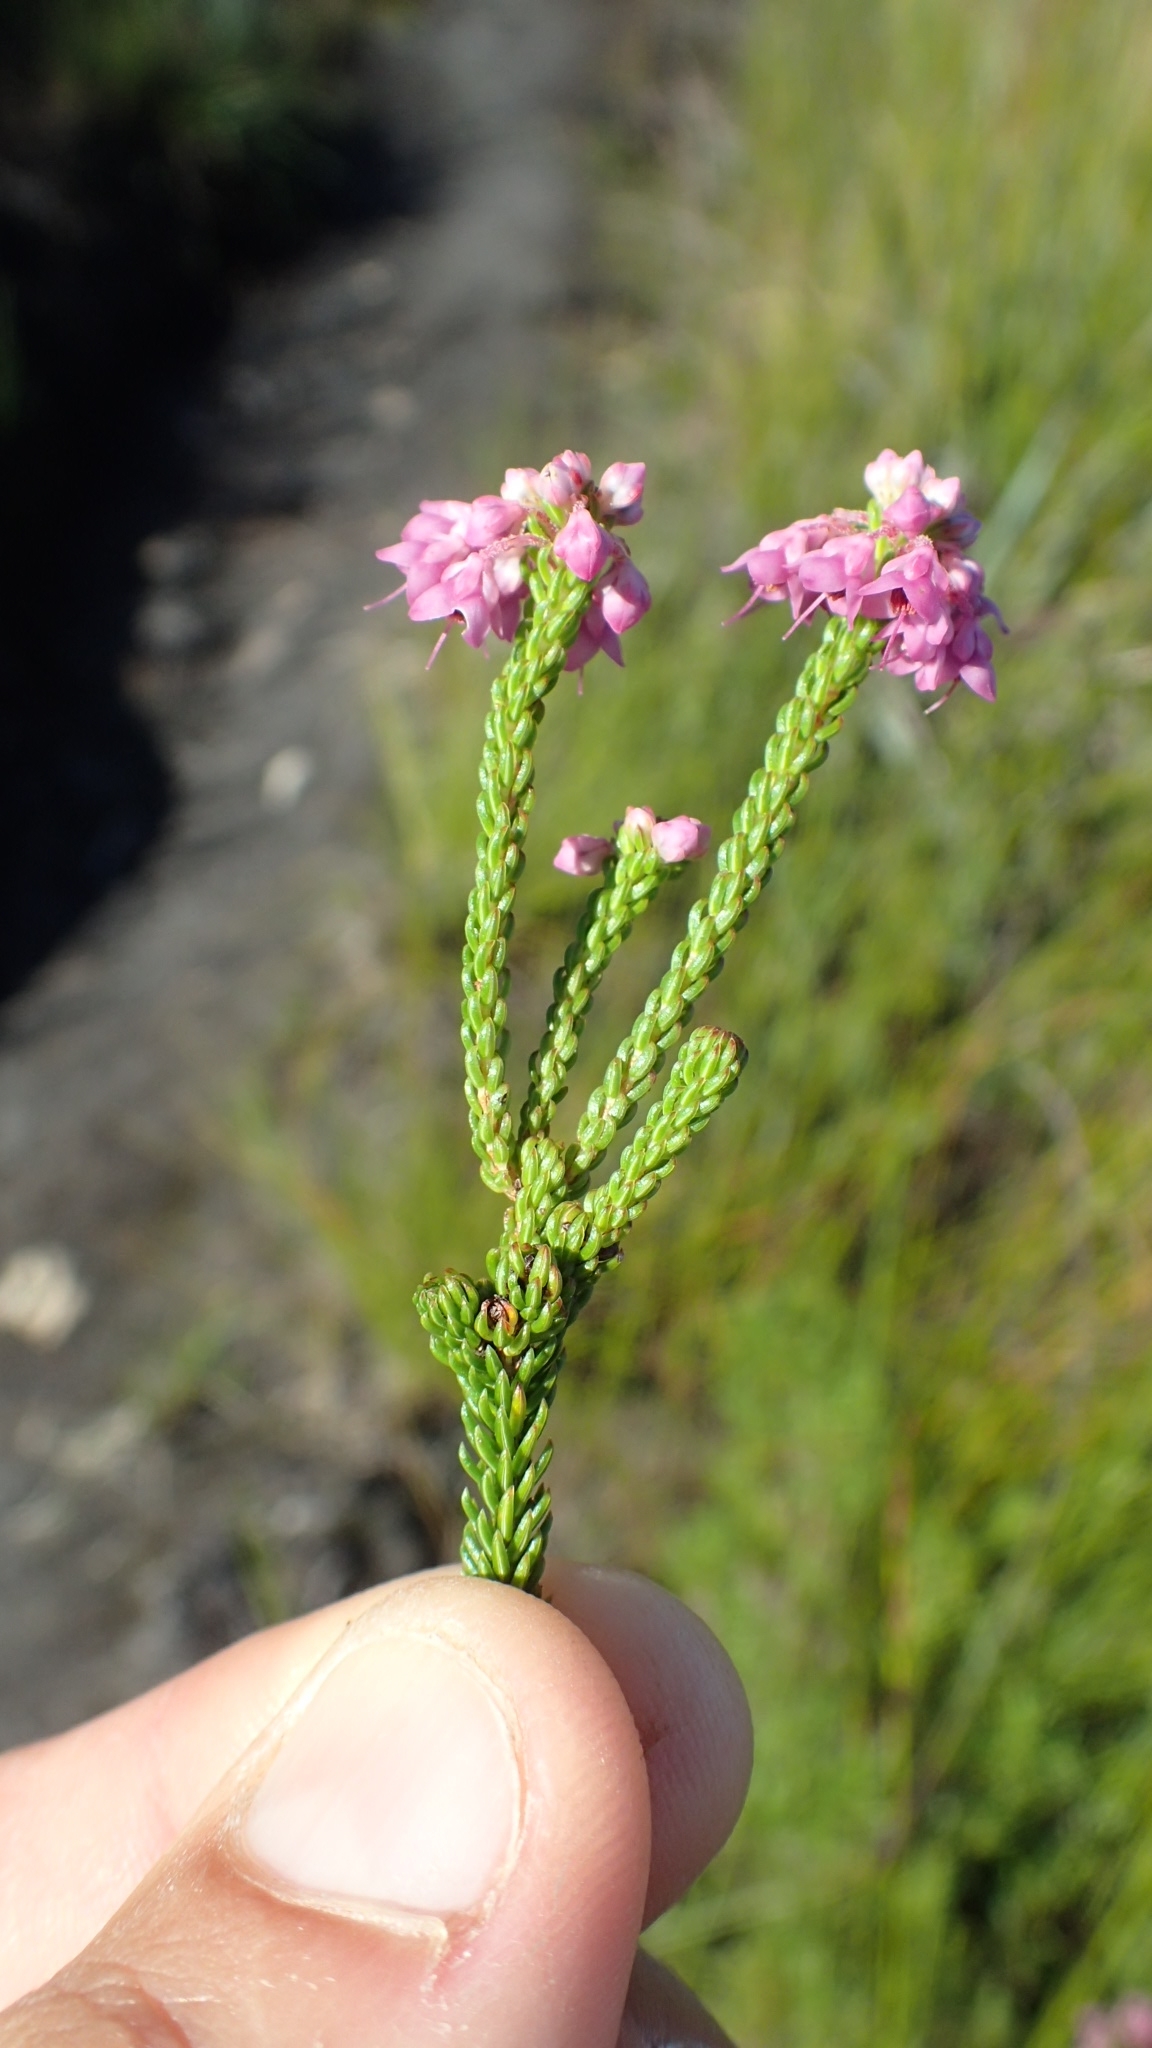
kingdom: Plantae
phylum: Tracheophyta
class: Magnoliopsida
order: Ericales
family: Ericaceae
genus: Erica
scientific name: Erica seriphiifolia
